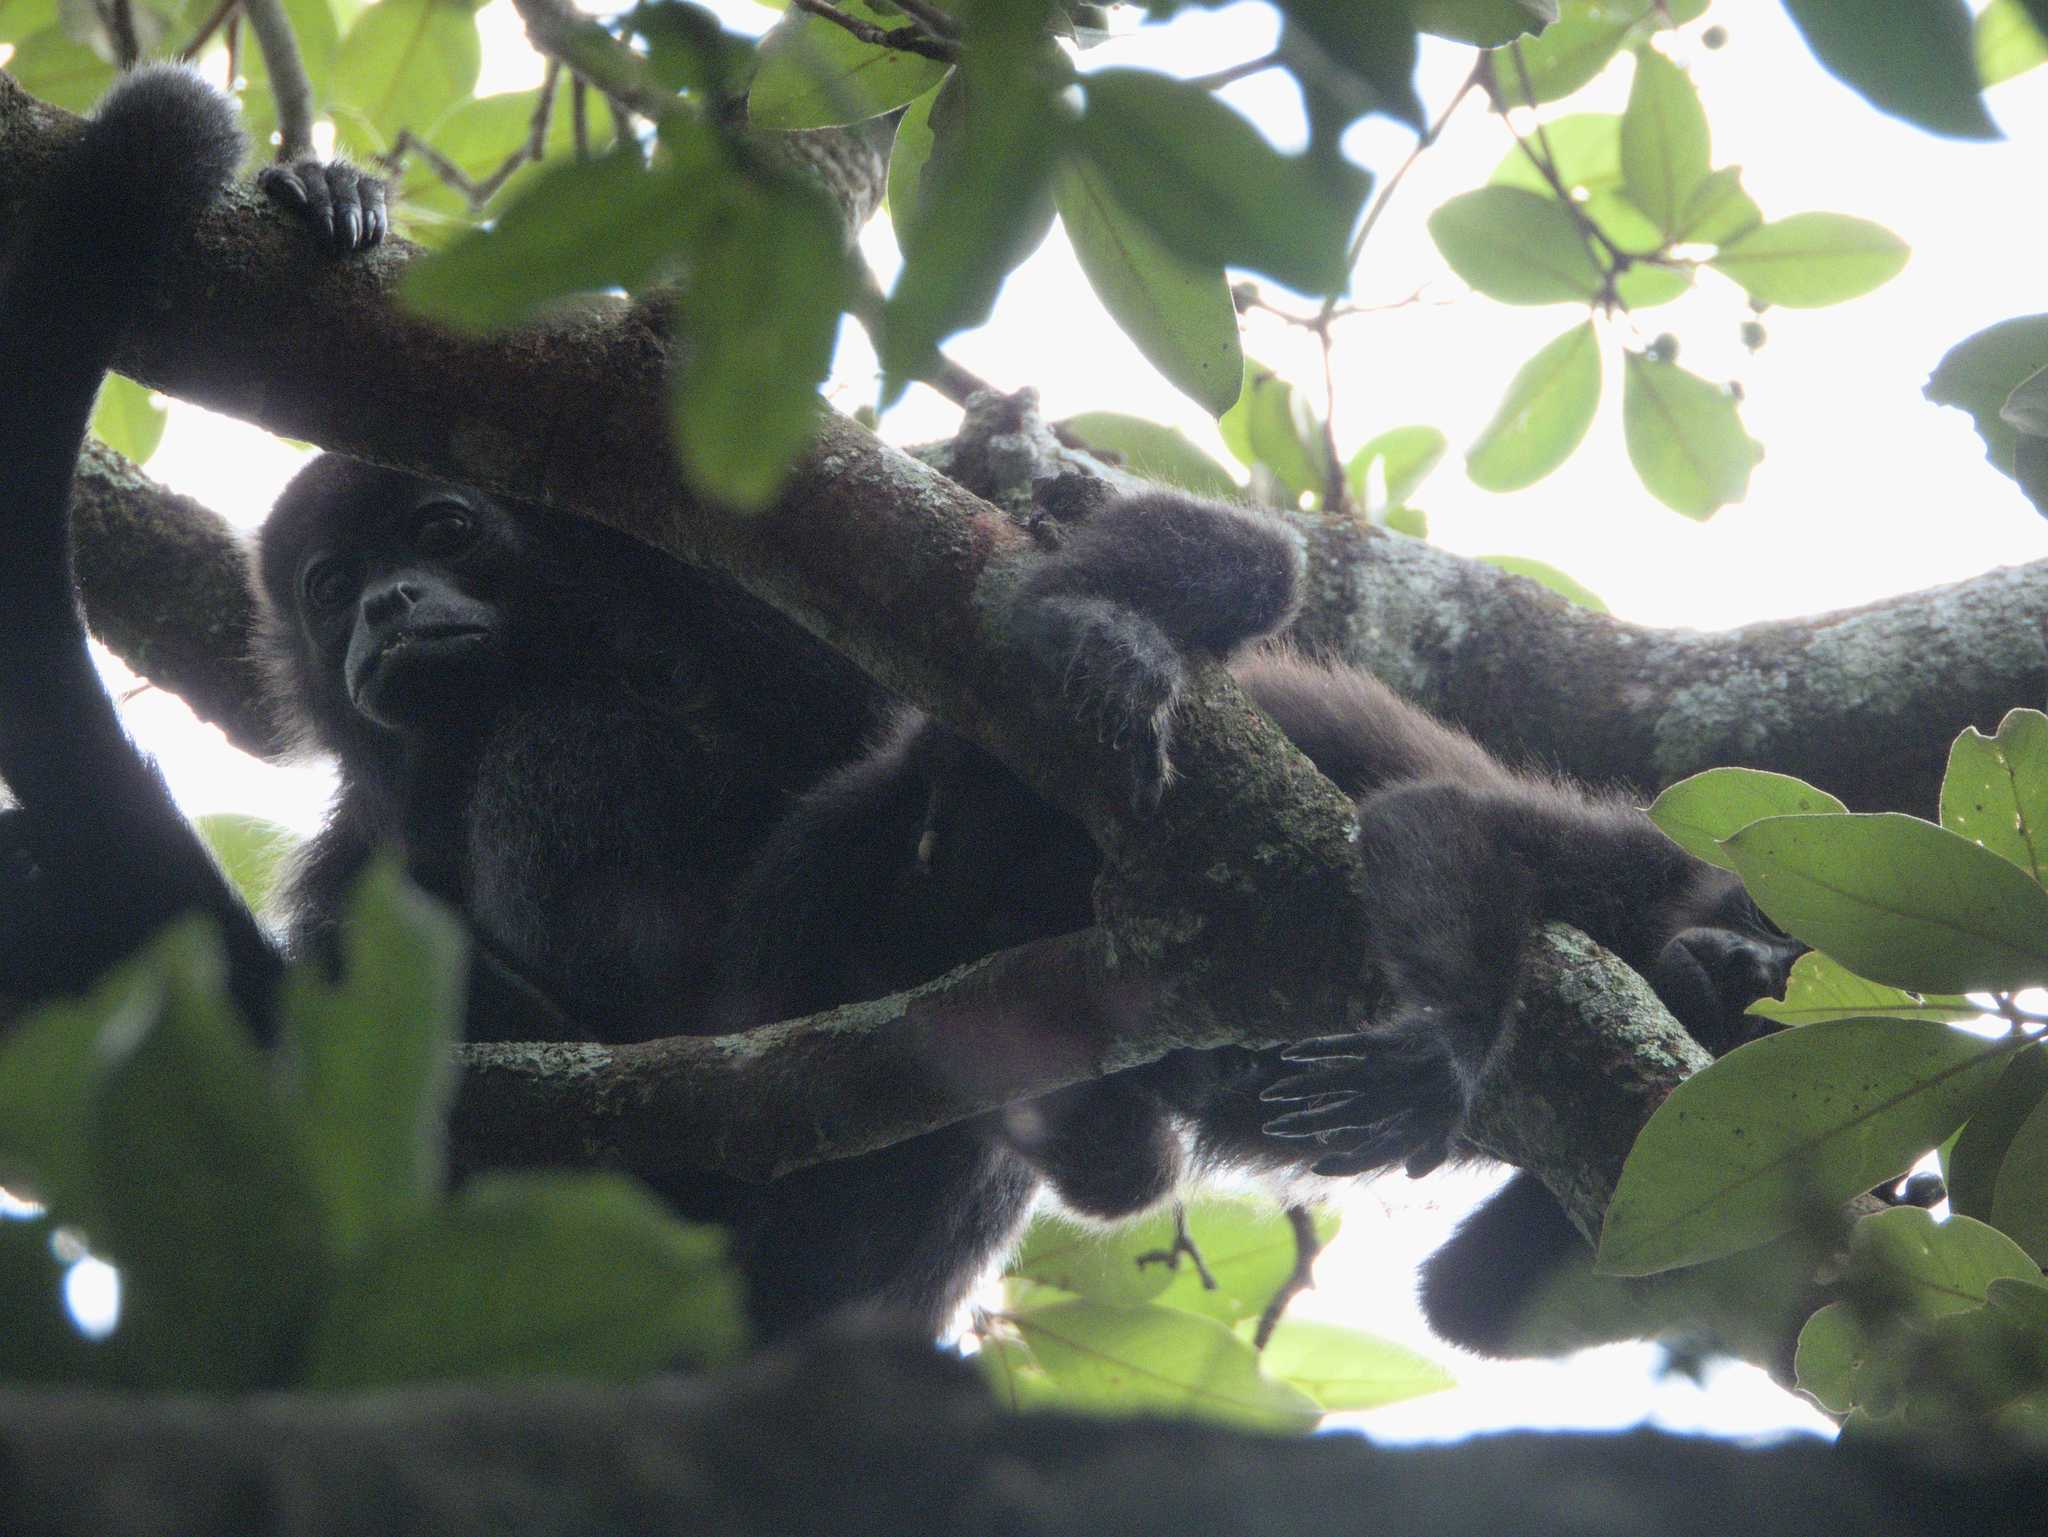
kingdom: Animalia
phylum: Chordata
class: Mammalia
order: Primates
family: Atelidae
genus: Alouatta
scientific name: Alouatta palliata
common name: Mantled howler
